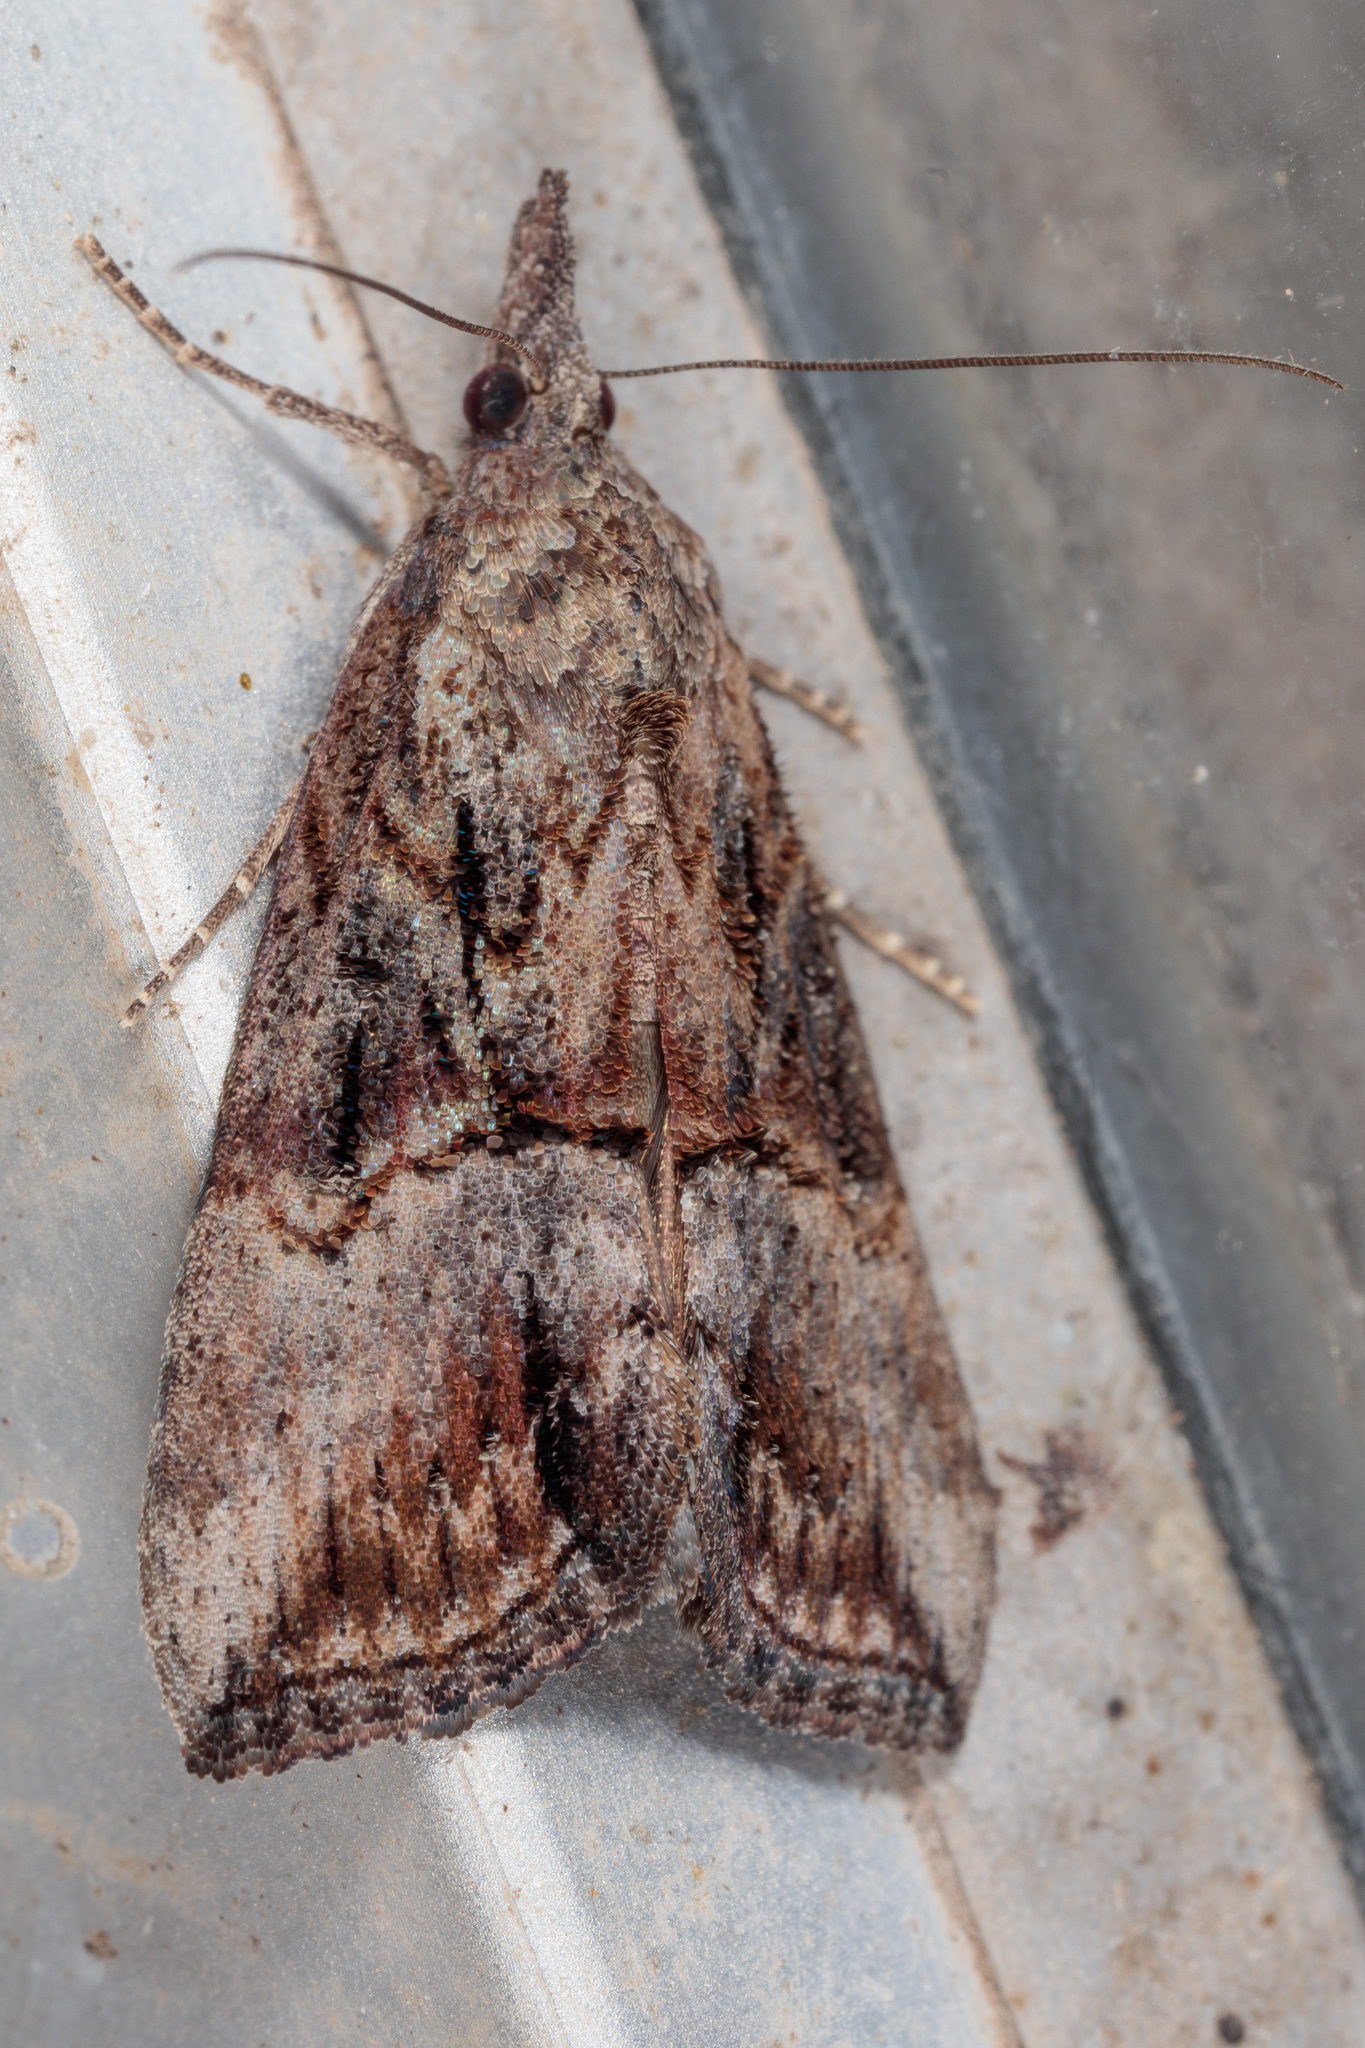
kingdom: Animalia
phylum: Arthropoda
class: Insecta
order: Lepidoptera
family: Erebidae
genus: Hypena
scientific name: Hypena scabra
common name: Green cloverworm
